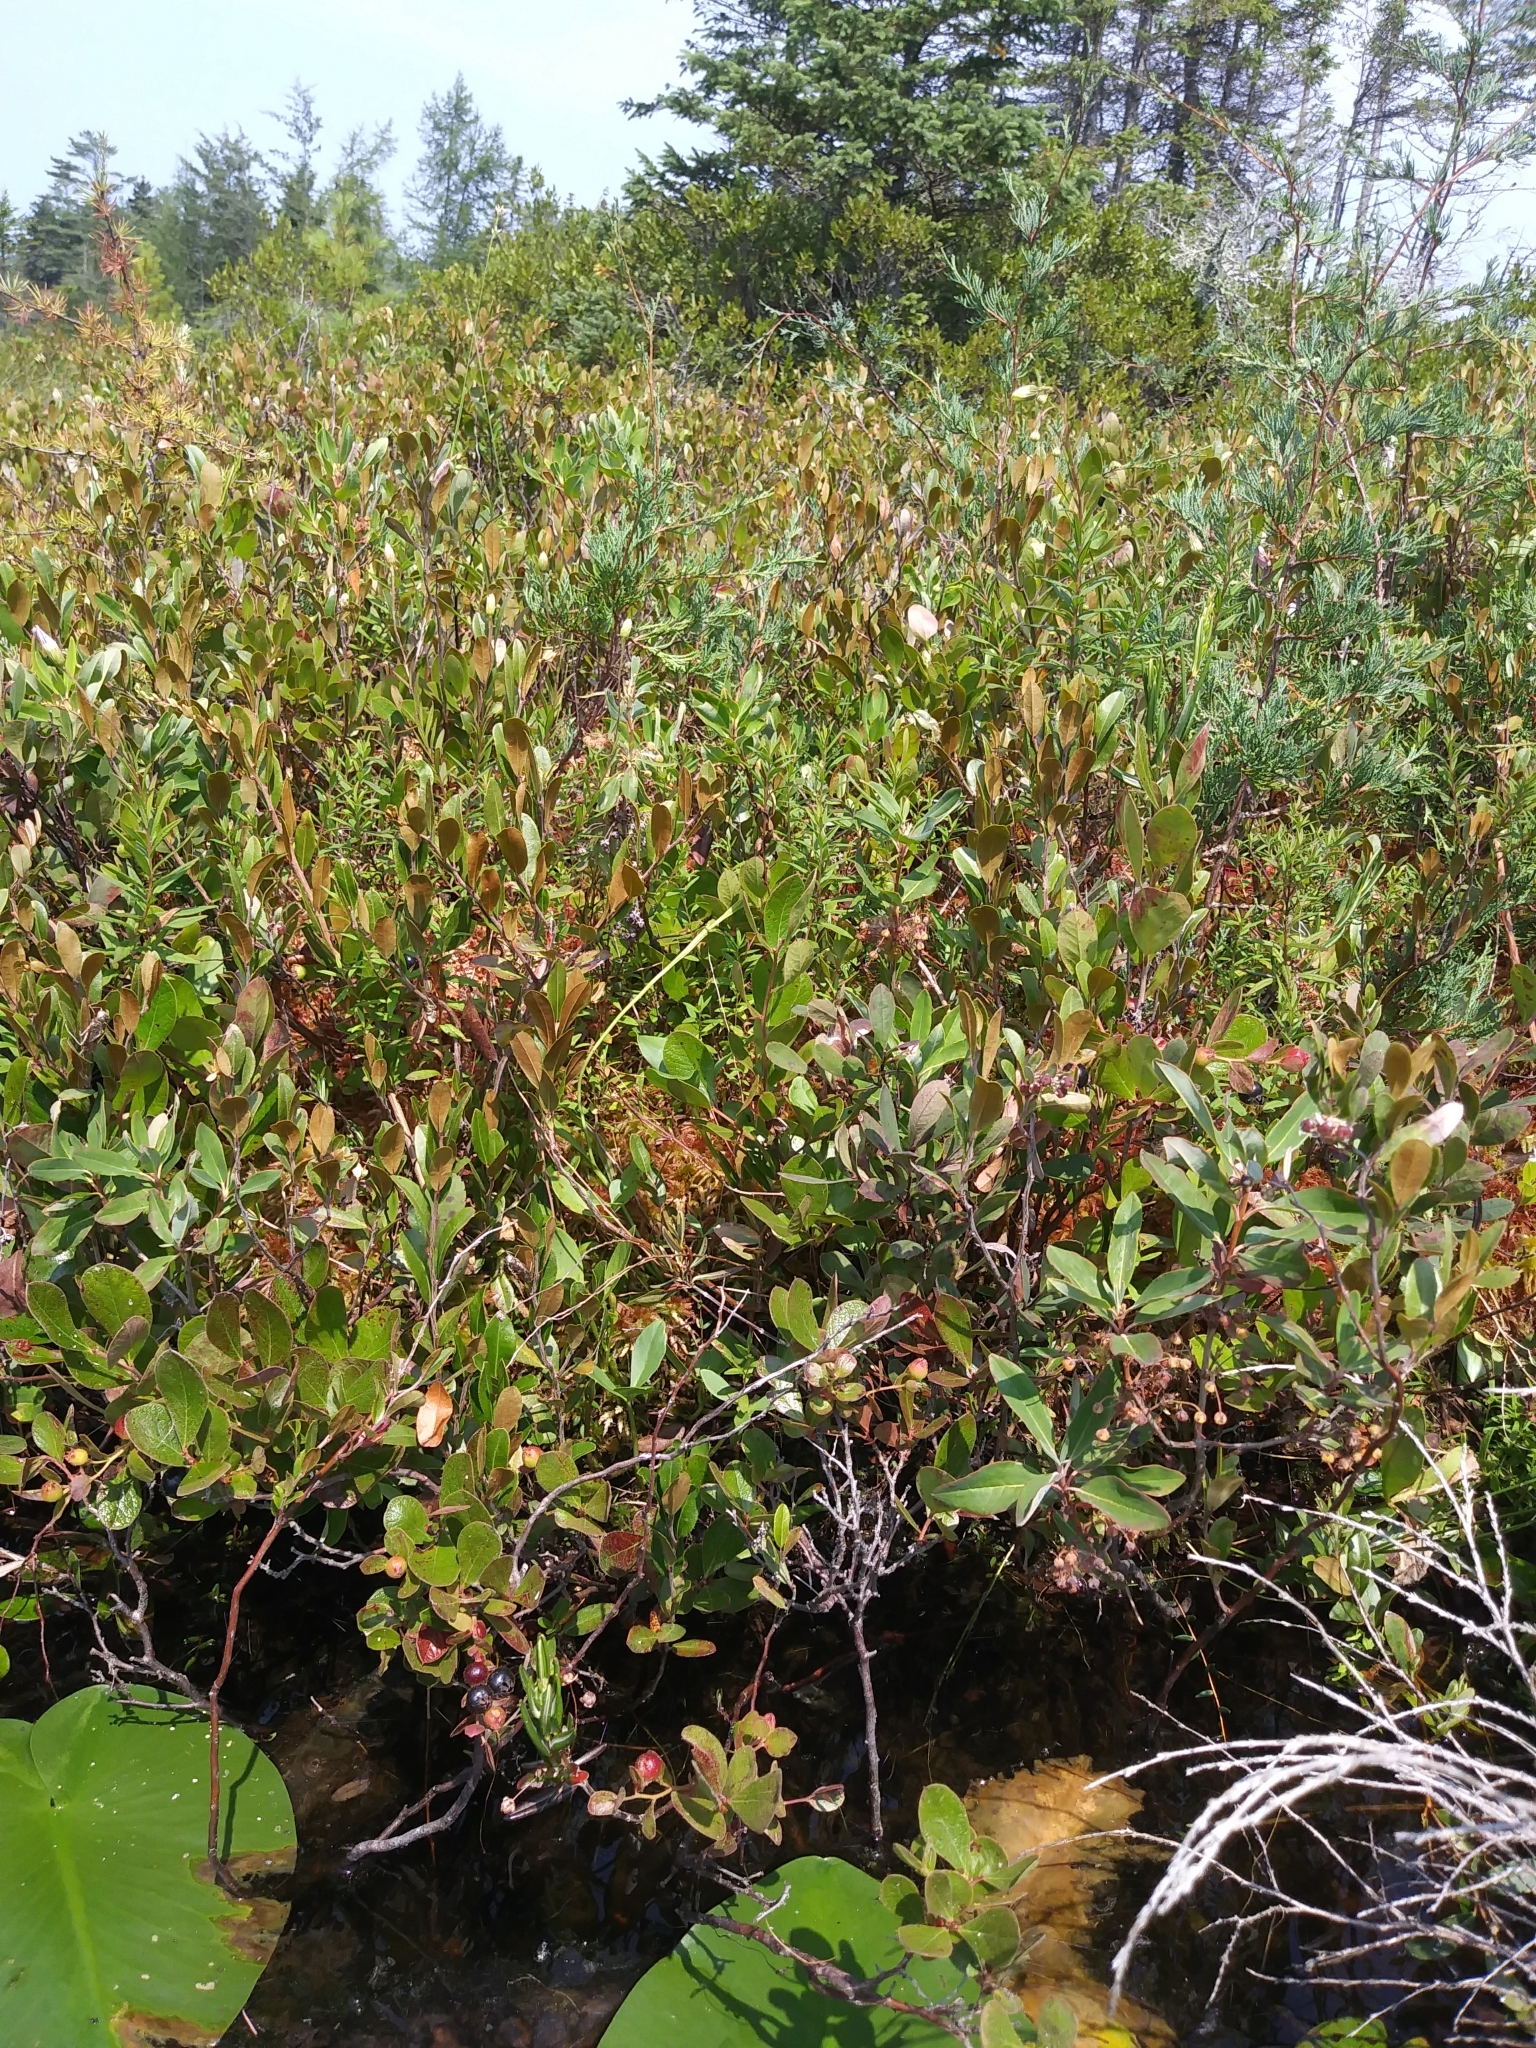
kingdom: Plantae
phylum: Tracheophyta
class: Magnoliopsida
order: Ericales
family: Ericaceae
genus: Gaylussacia
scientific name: Gaylussacia bigeloviana
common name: Bog huckleberry
